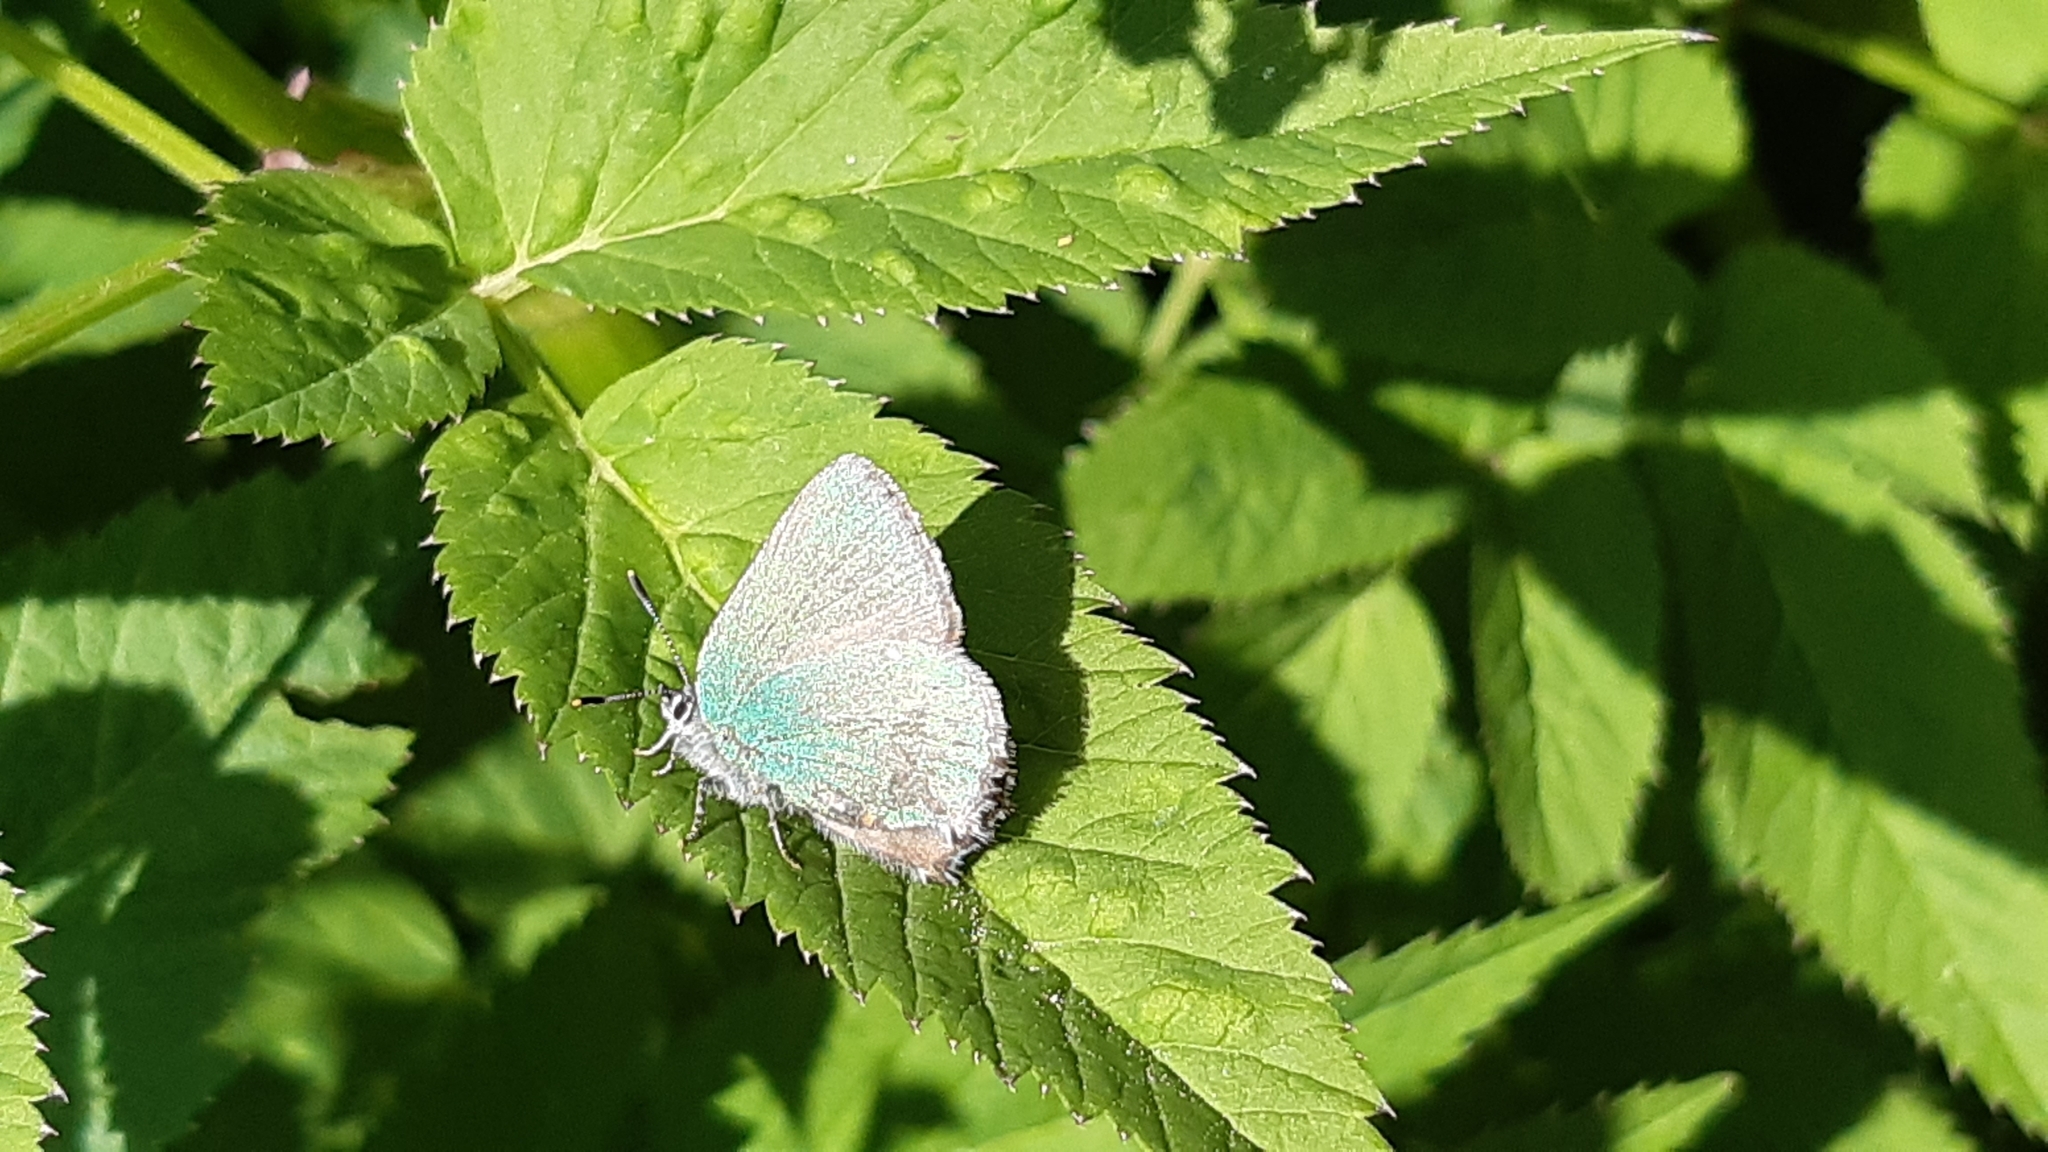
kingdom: Animalia
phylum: Arthropoda
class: Insecta
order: Lepidoptera
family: Lycaenidae
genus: Callophrys
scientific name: Callophrys rubi
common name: Green hairstreak
